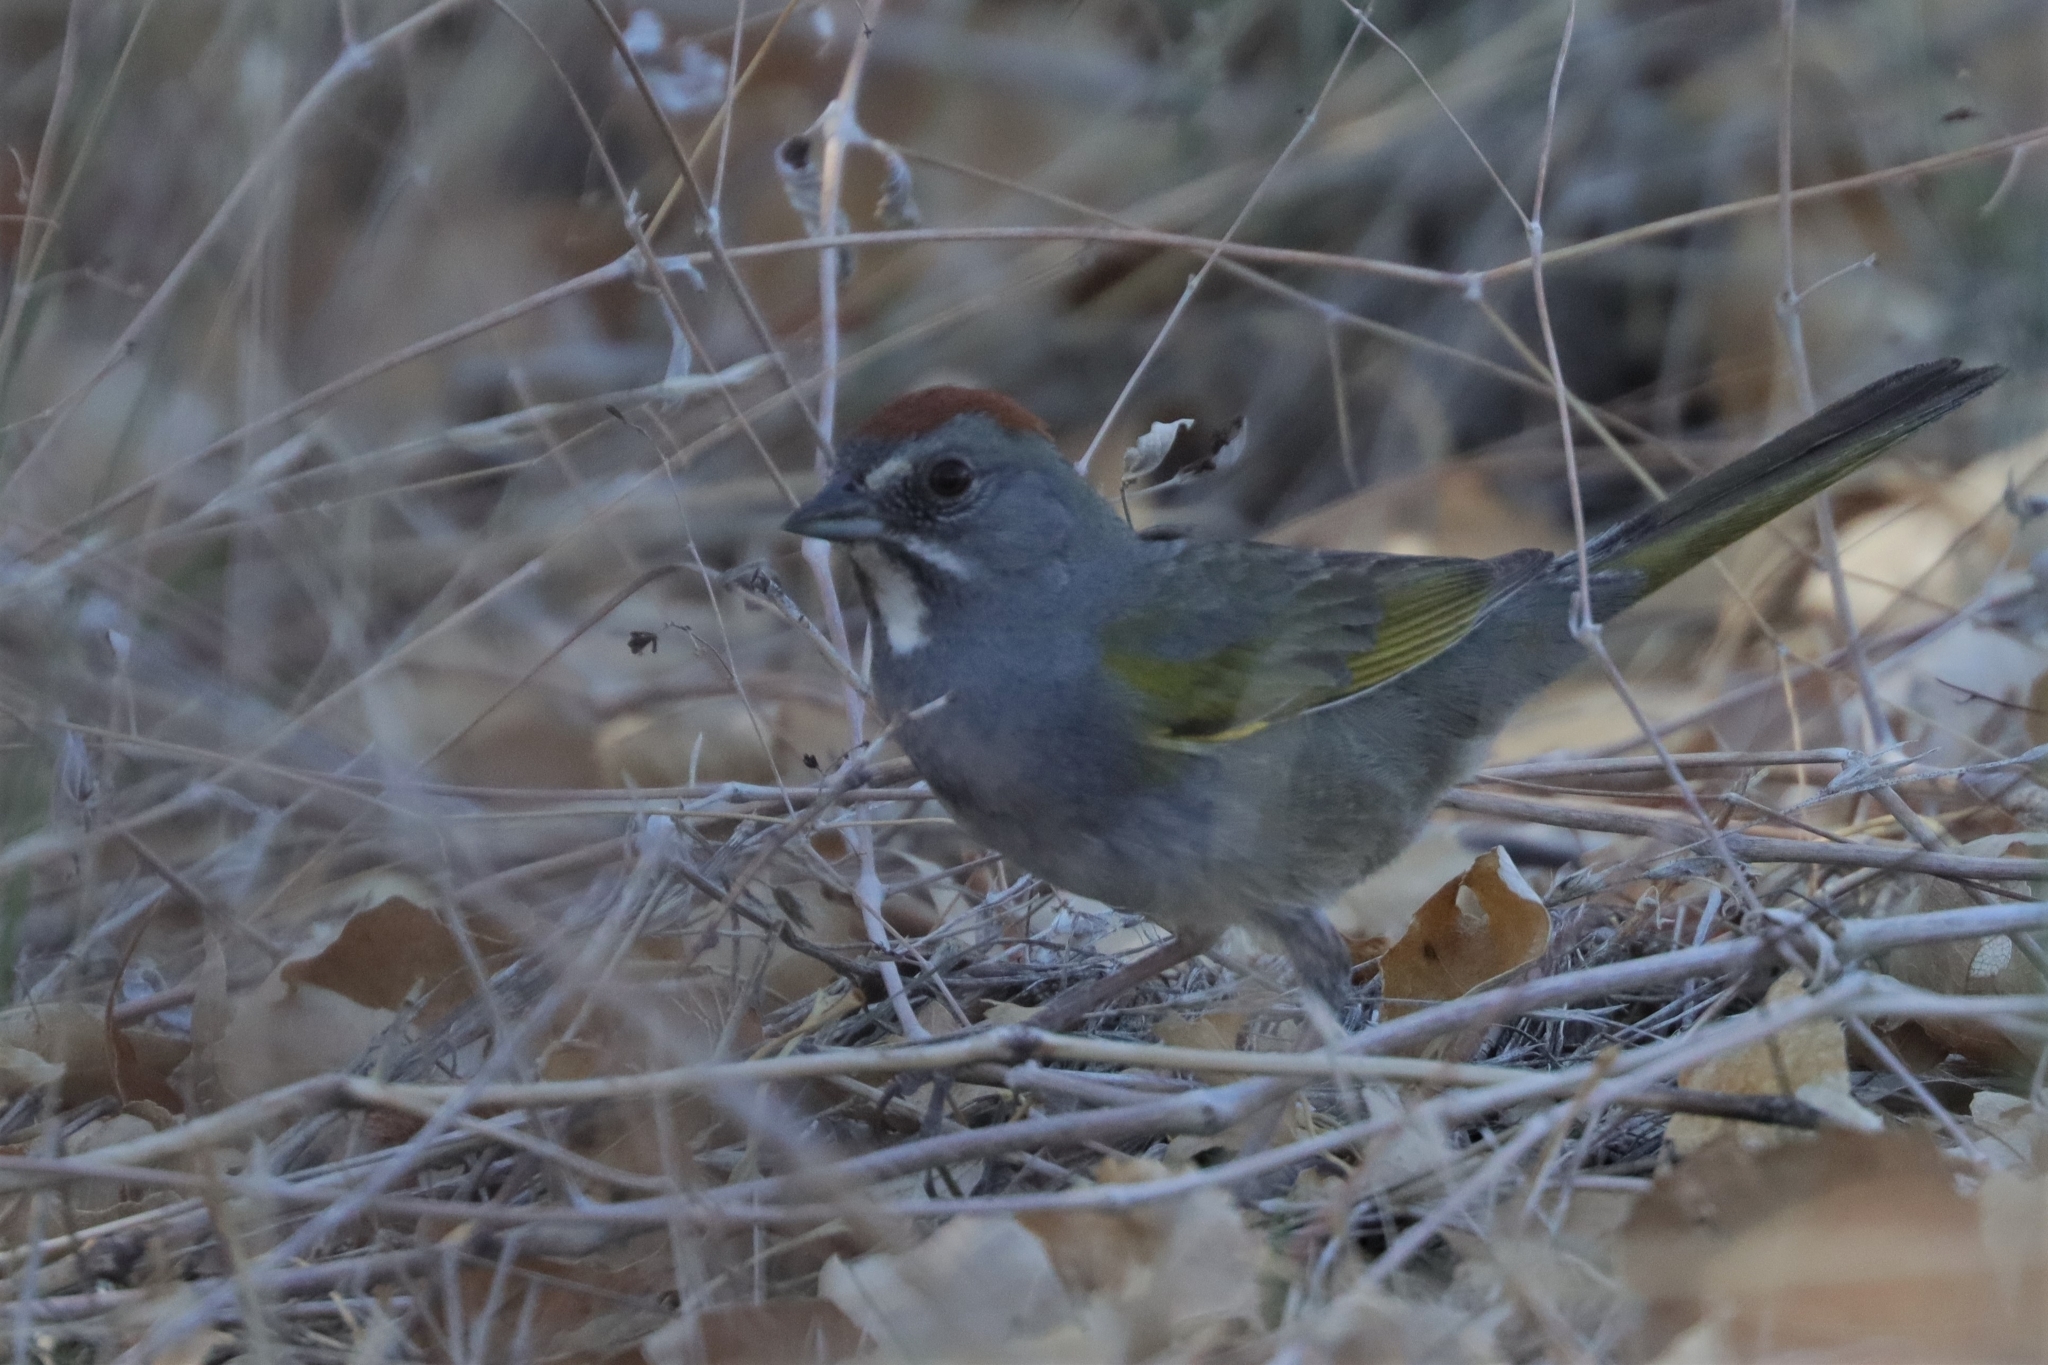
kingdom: Animalia
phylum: Chordata
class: Aves
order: Passeriformes
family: Passerellidae
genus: Pipilo
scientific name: Pipilo chlorurus
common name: Green-tailed towhee
